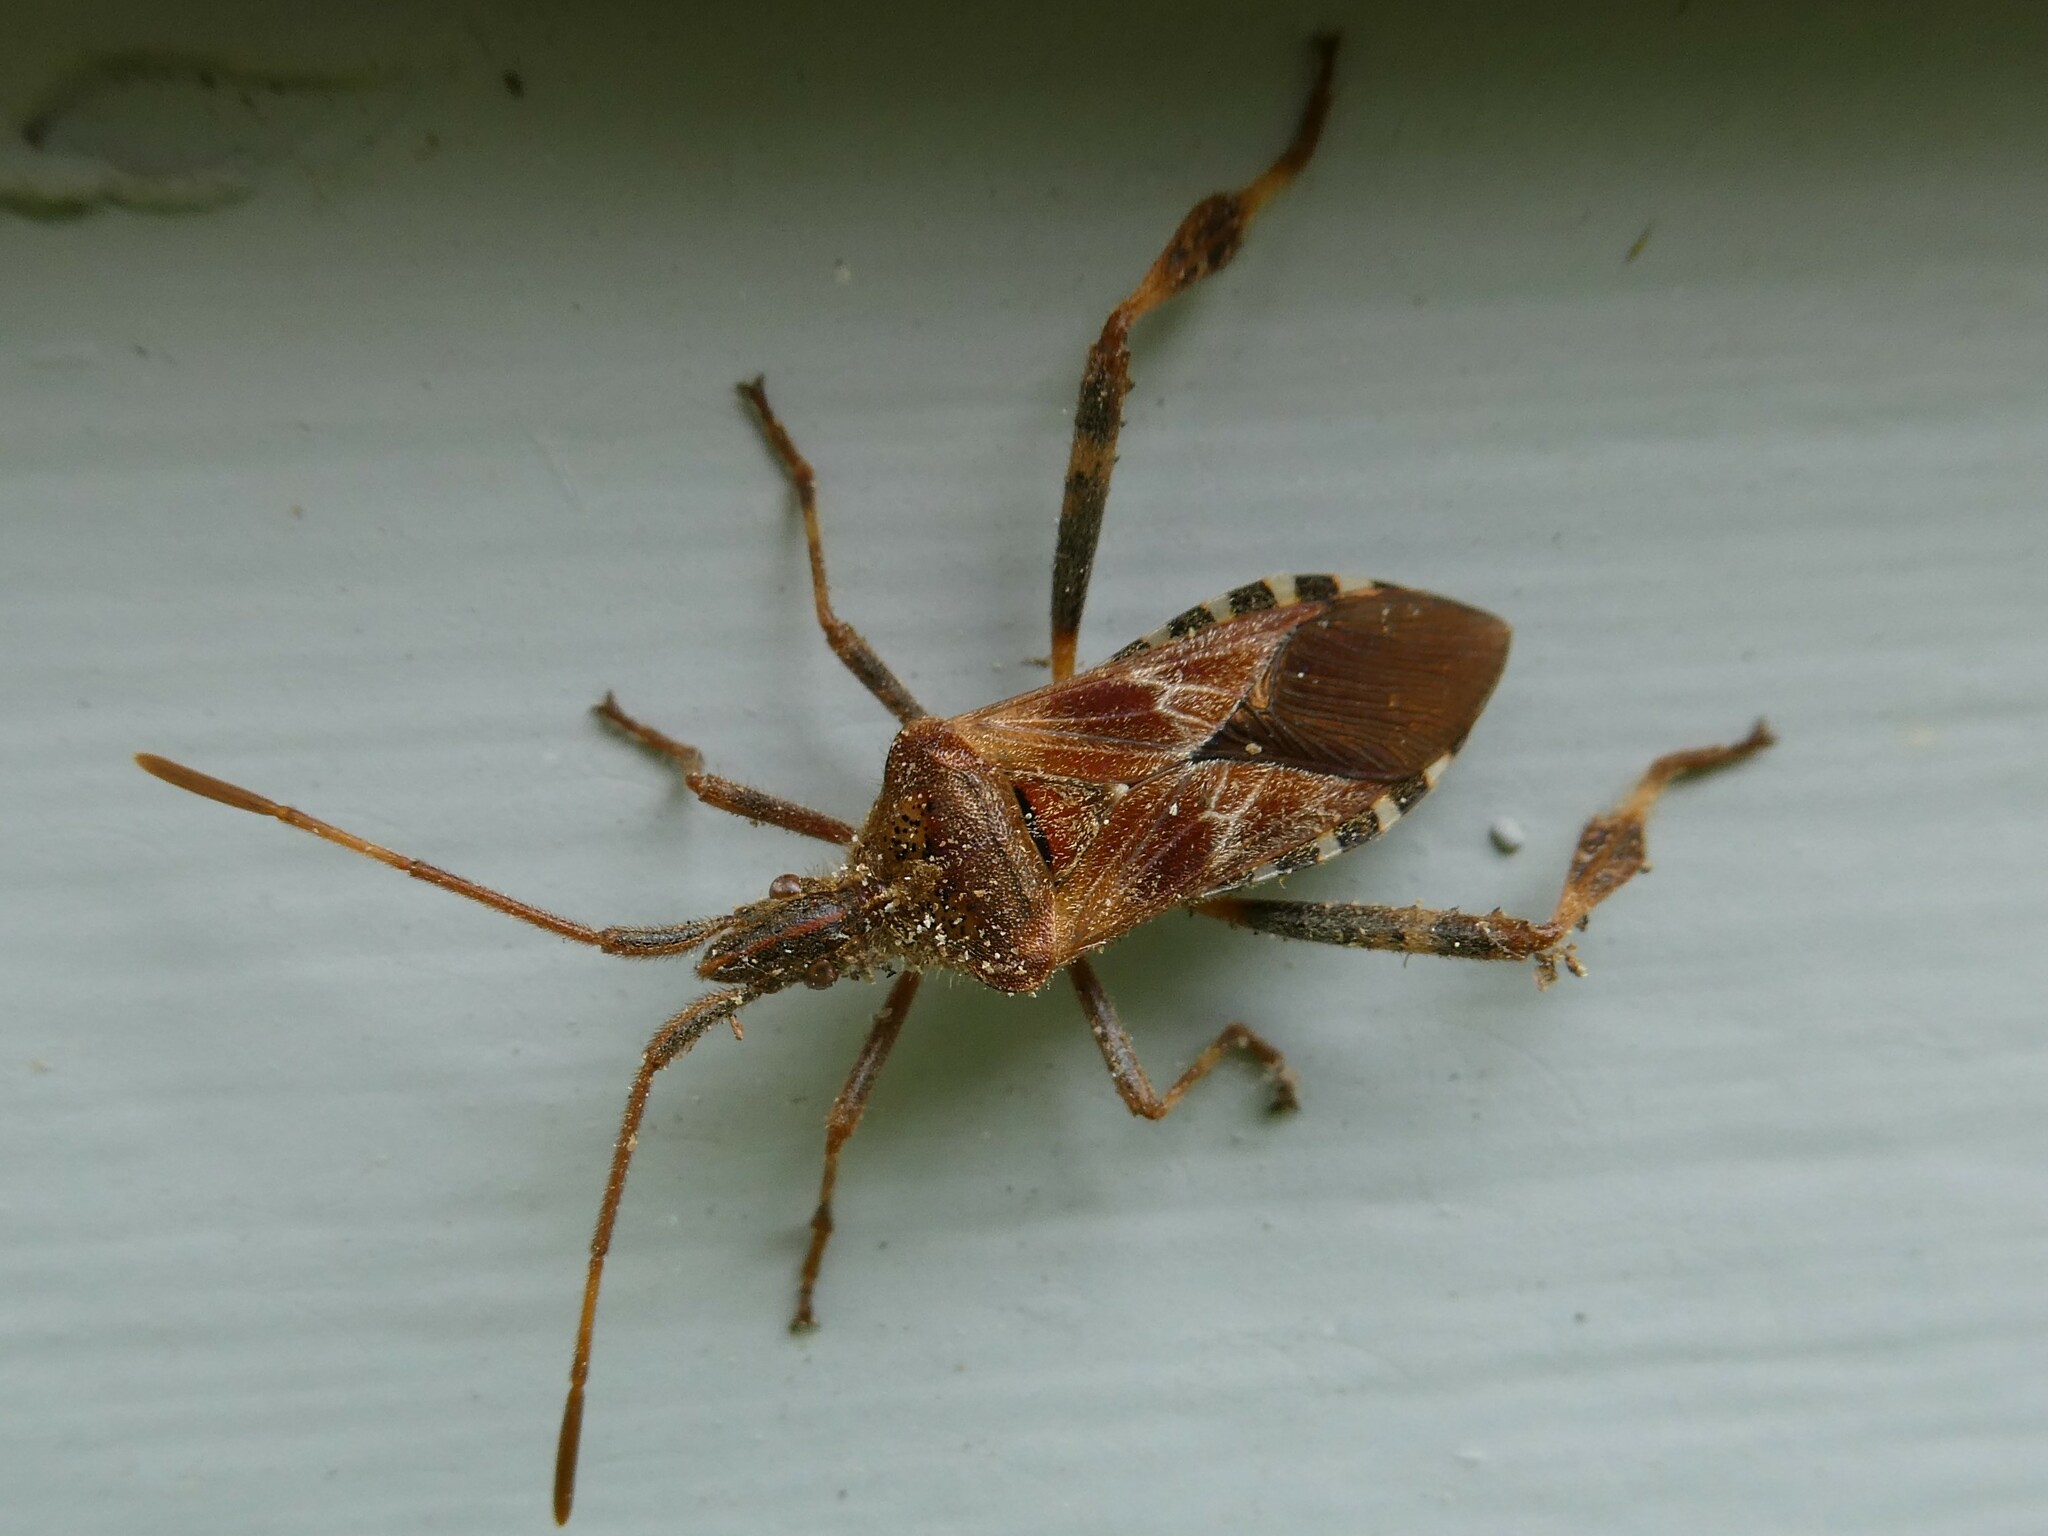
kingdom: Animalia
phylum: Arthropoda
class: Insecta
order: Hemiptera
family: Coreidae
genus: Leptoglossus
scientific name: Leptoglossus occidentalis
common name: Western conifer-seed bug
